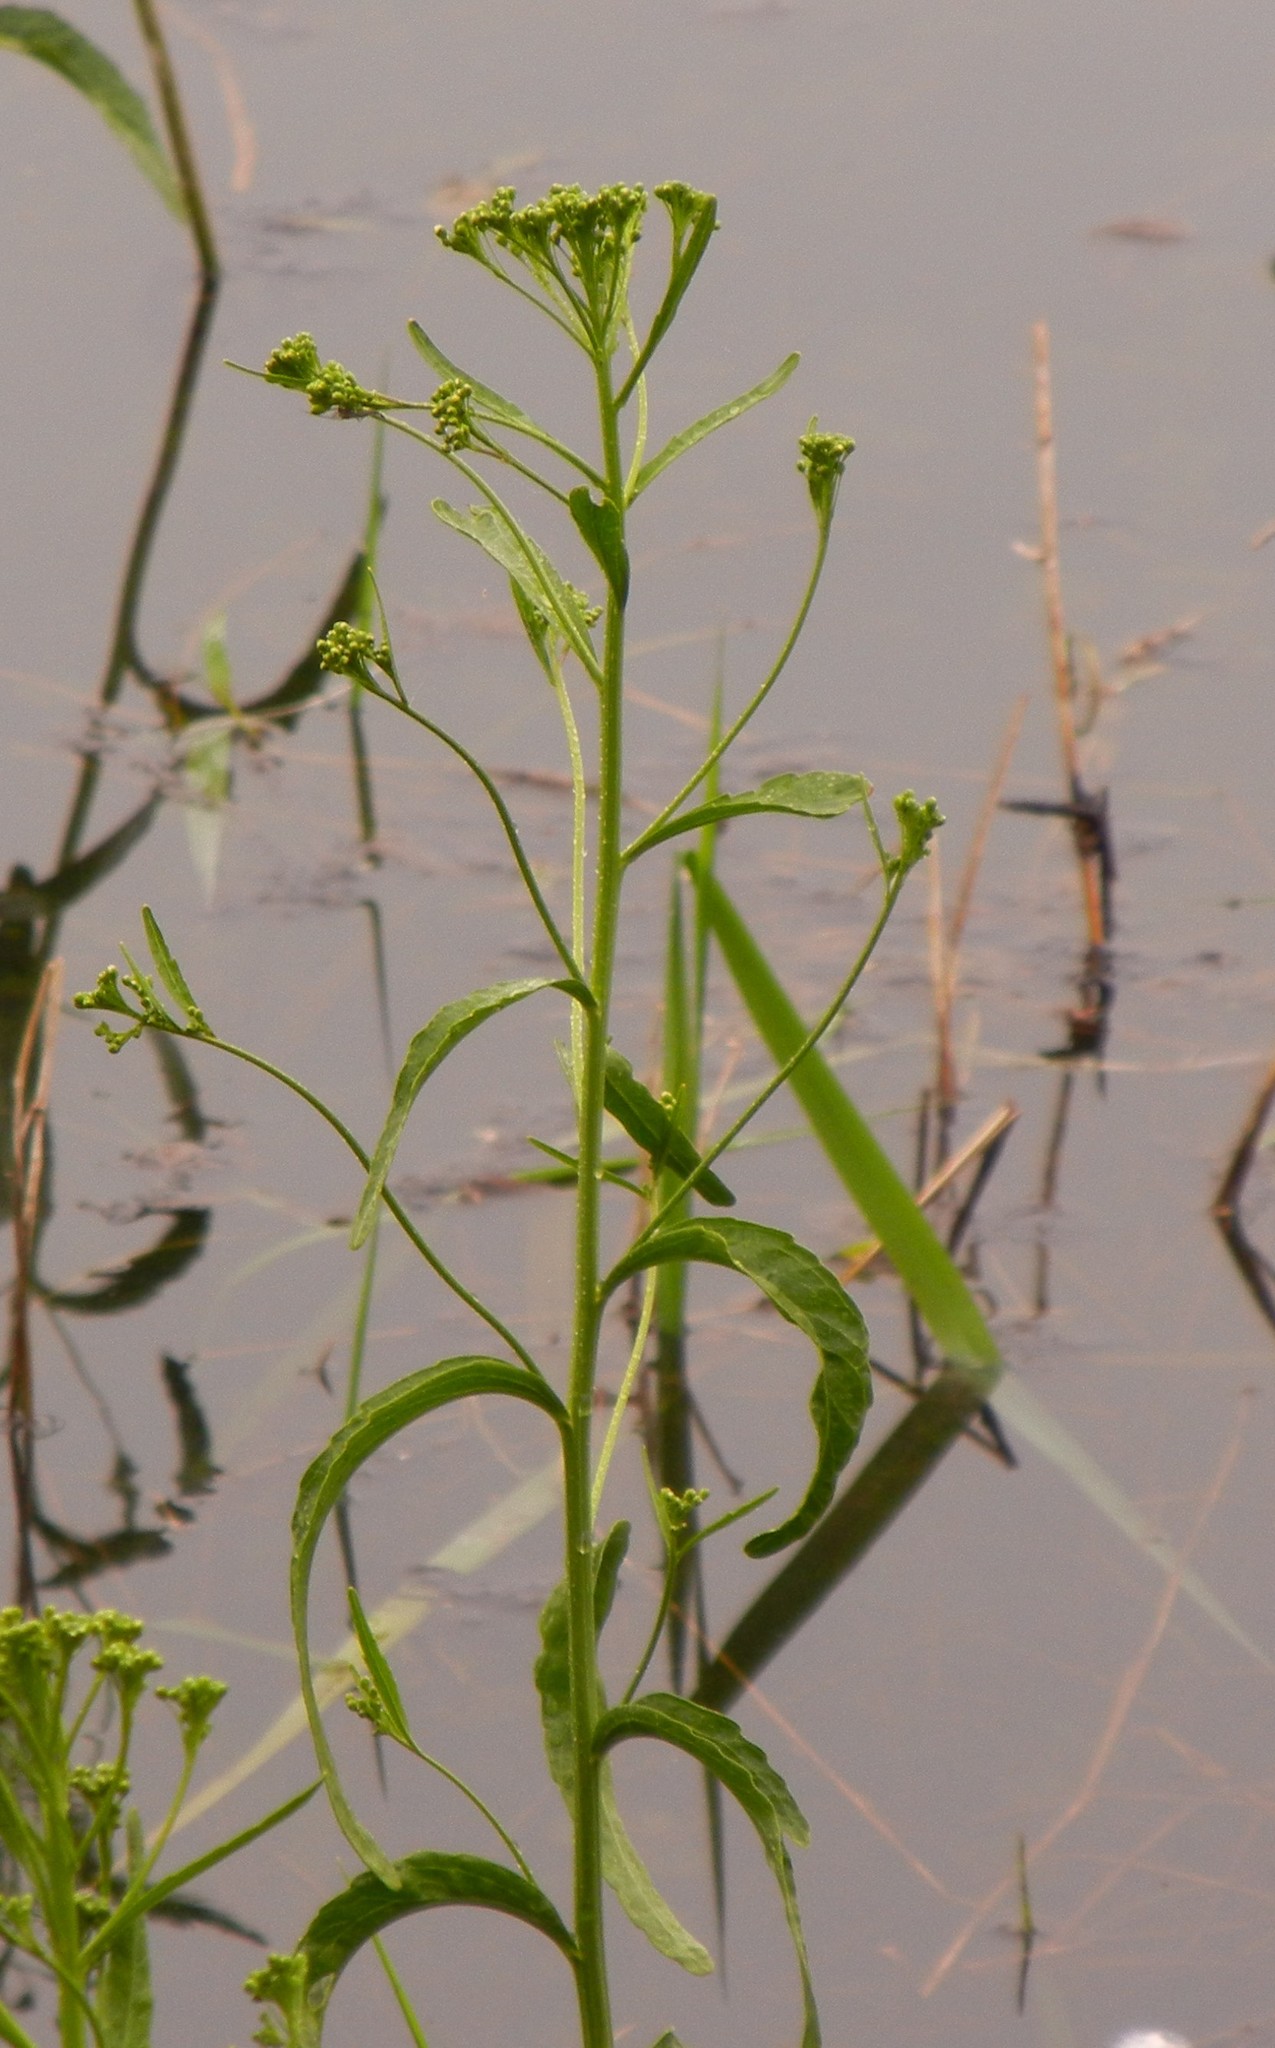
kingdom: Plantae
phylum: Tracheophyta
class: Magnoliopsida
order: Brassicales
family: Brassicaceae
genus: Armoracia
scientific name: Armoracia rusticana
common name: Horseradish
